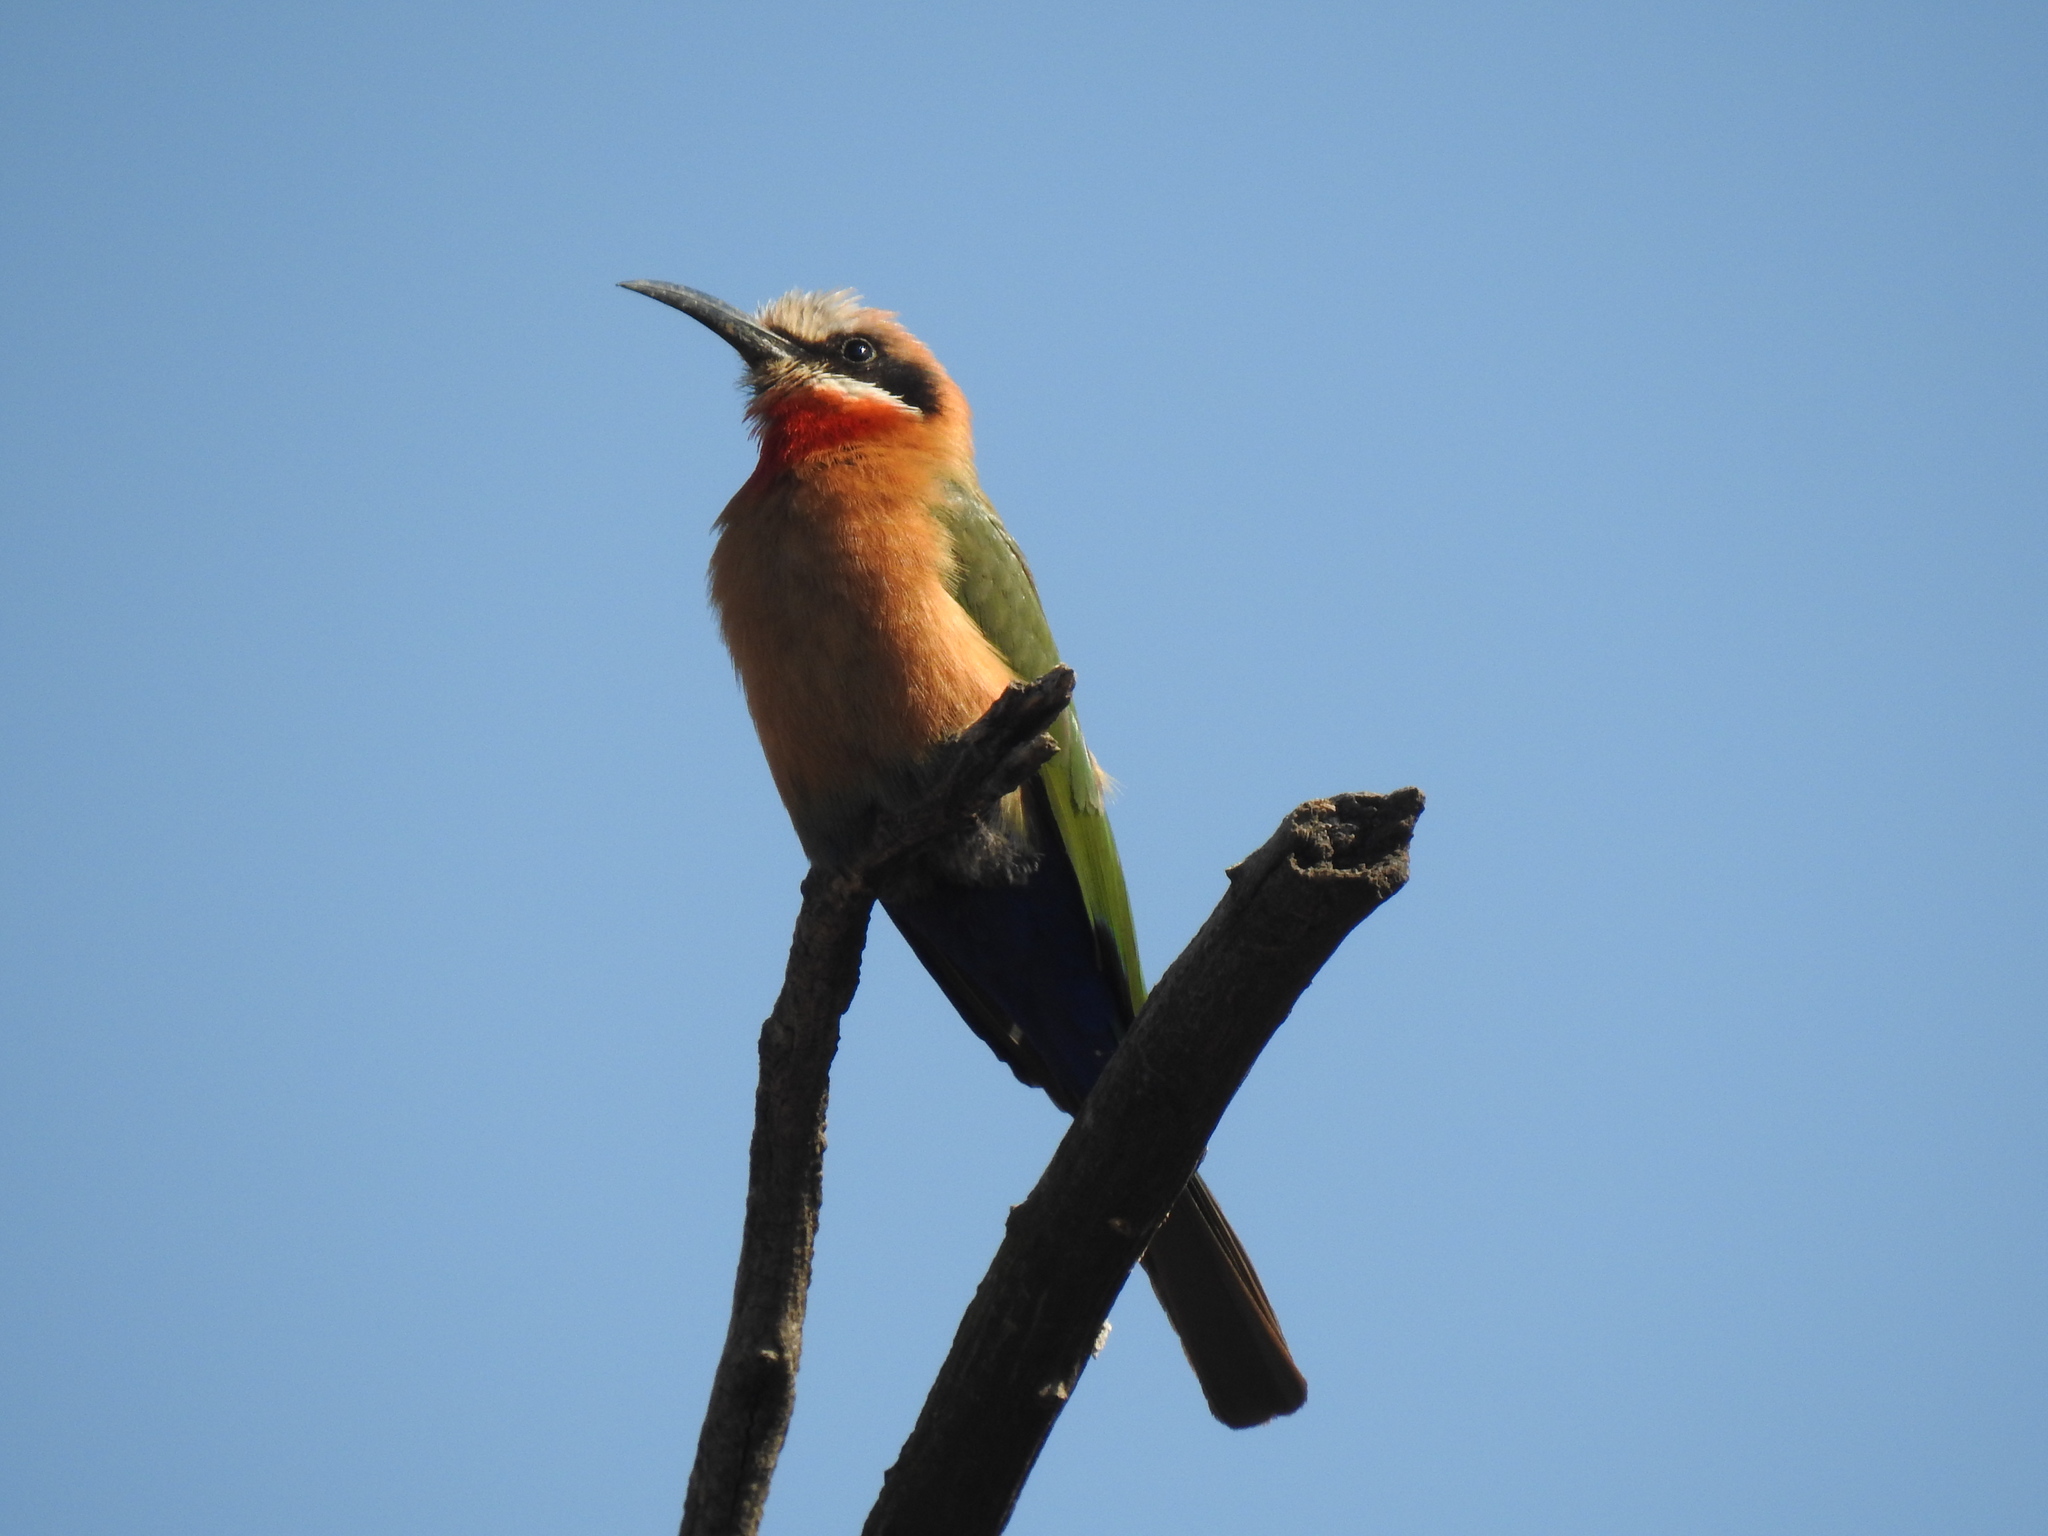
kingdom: Animalia
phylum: Chordata
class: Aves
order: Coraciiformes
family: Meropidae
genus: Merops
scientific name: Merops bullockoides
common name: White-fronted bee-eater
